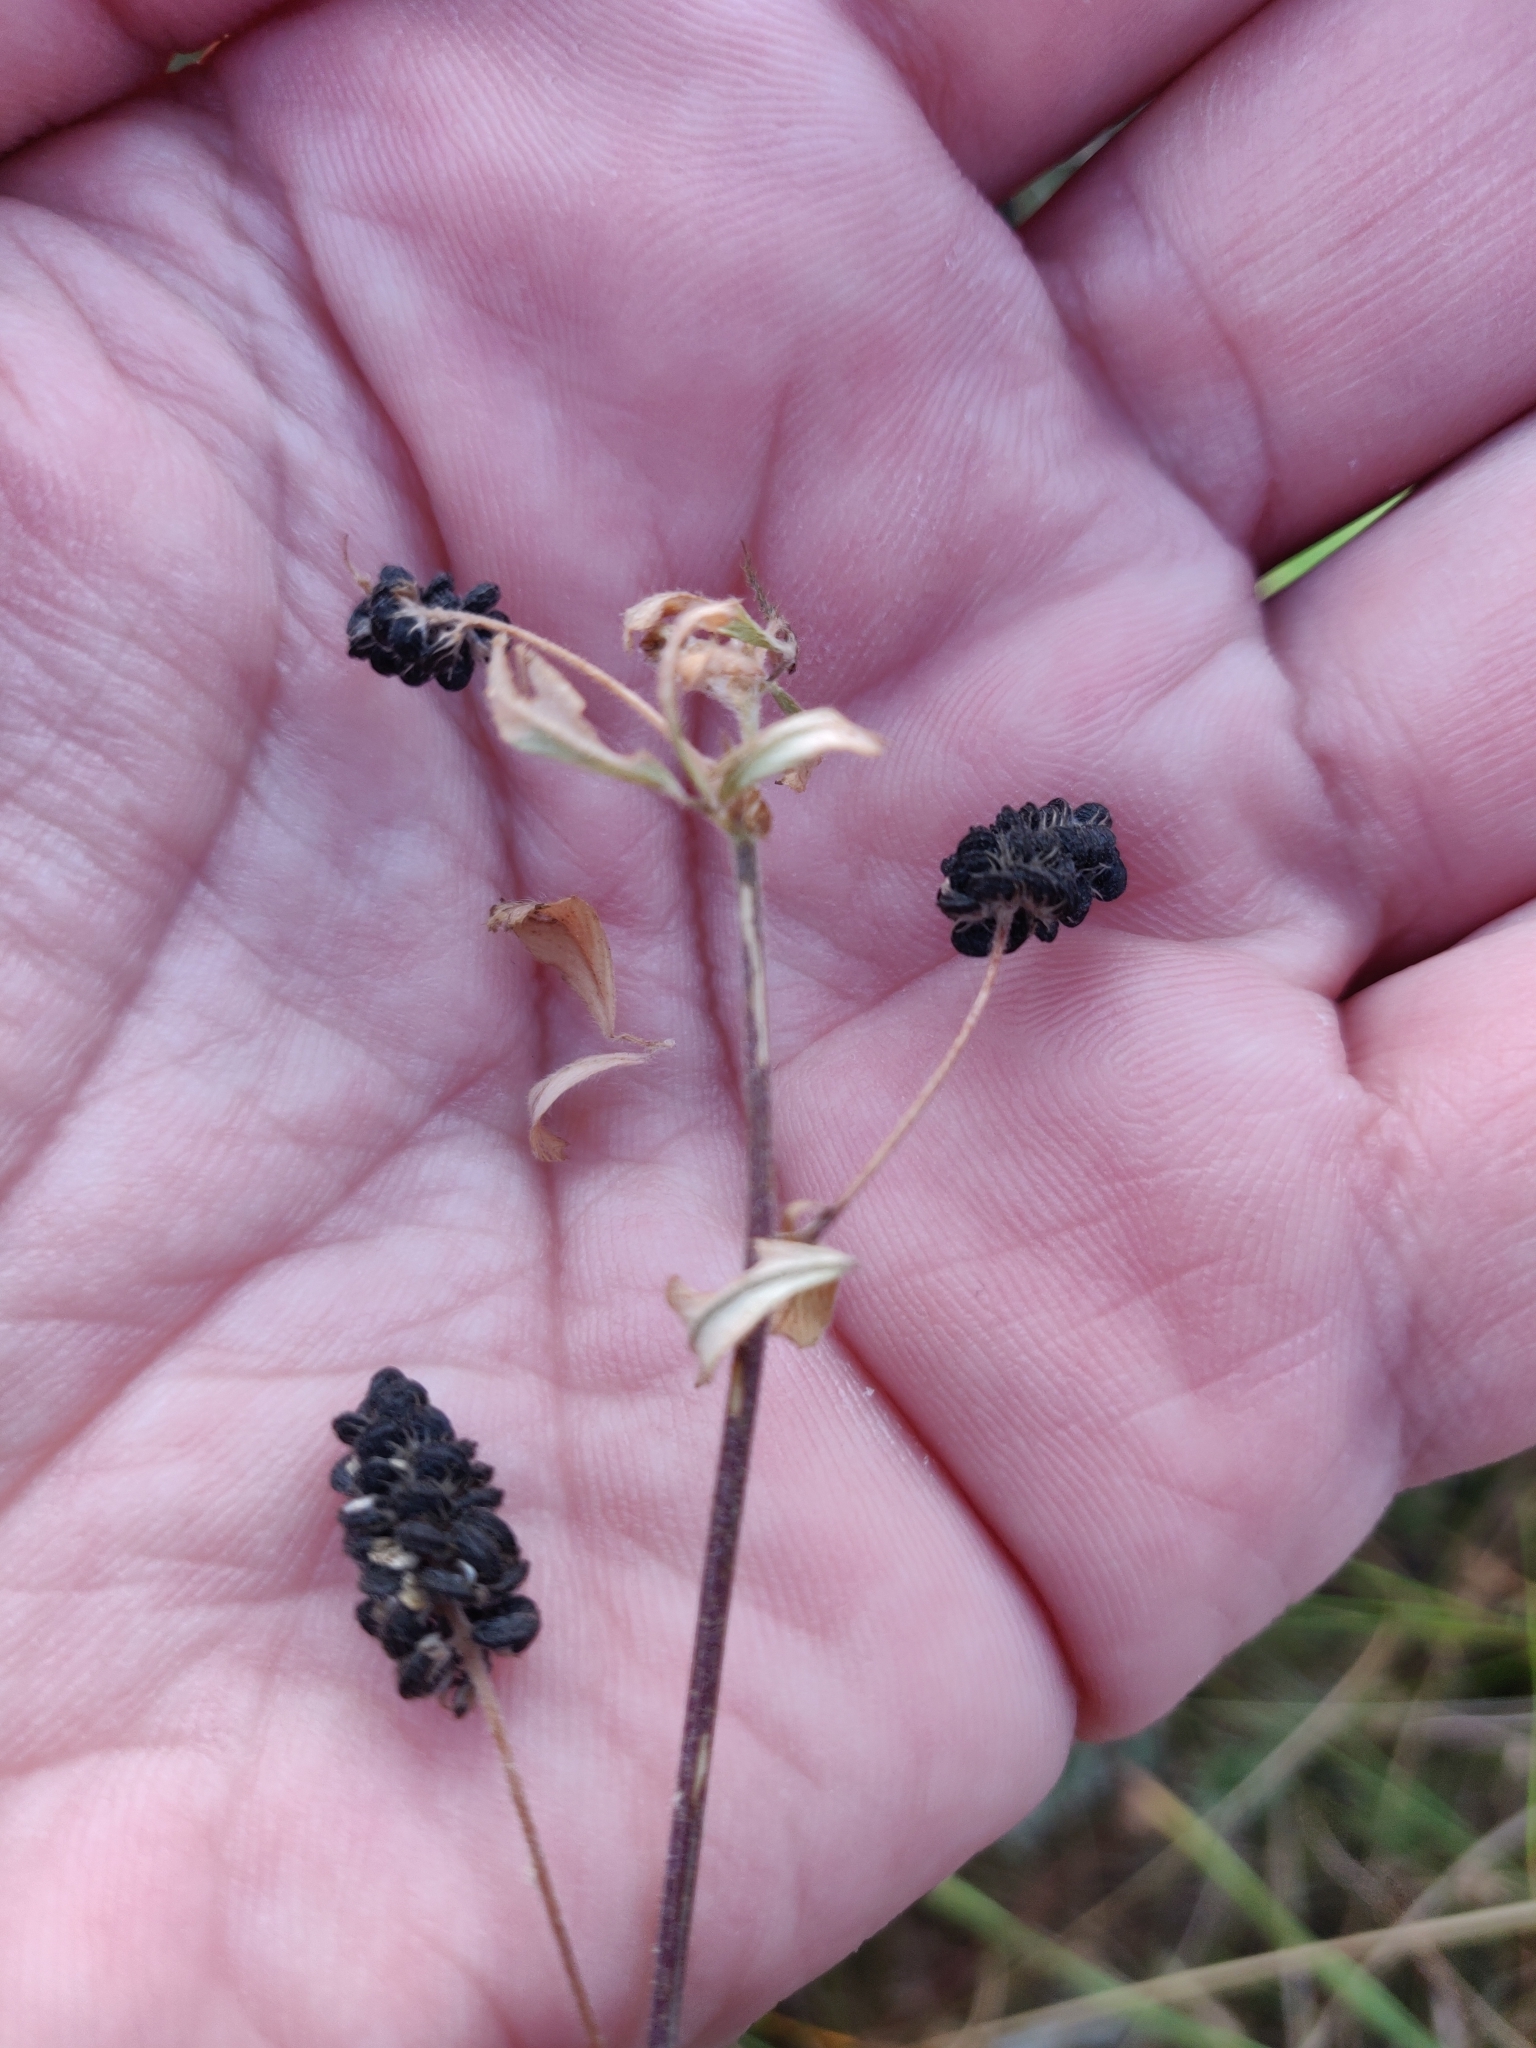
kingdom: Plantae
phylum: Tracheophyta
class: Magnoliopsida
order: Fabales
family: Fabaceae
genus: Medicago
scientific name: Medicago lupulina
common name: Black medick
